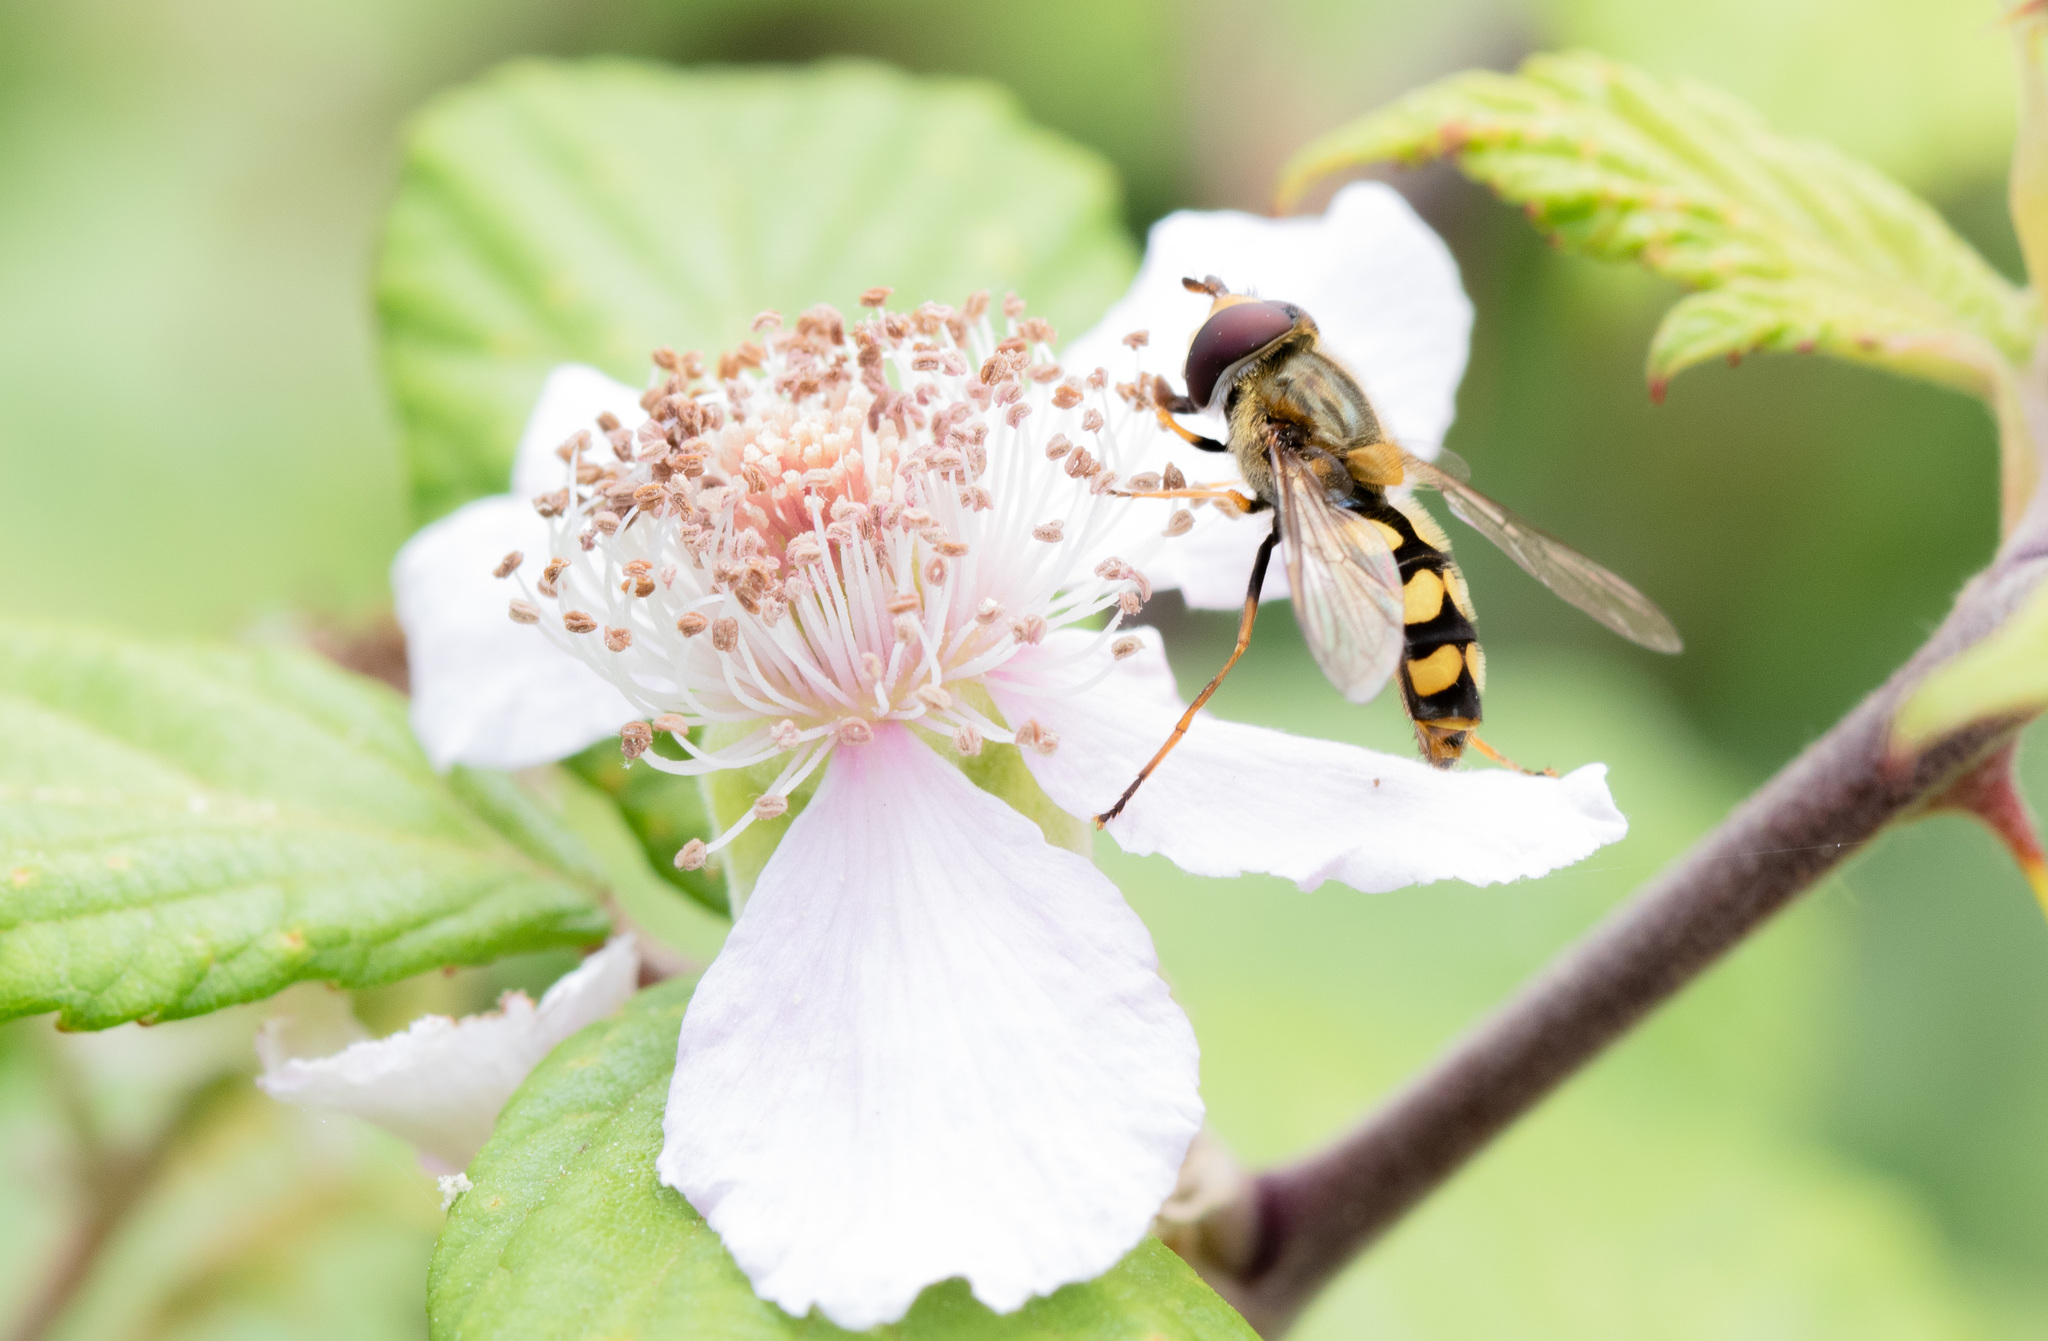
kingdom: Animalia
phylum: Arthropoda
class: Insecta
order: Diptera
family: Syrphidae
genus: Eupeodes
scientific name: Eupeodes
